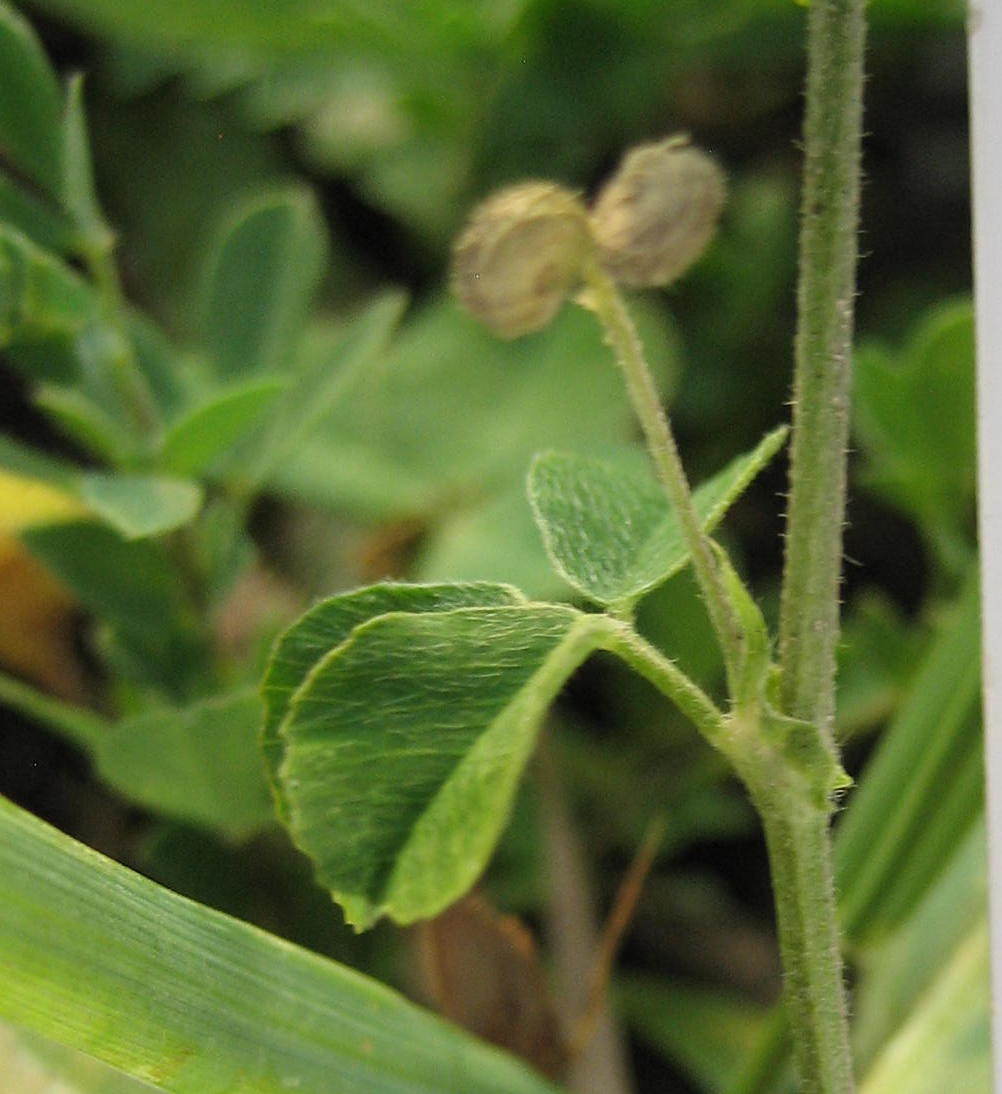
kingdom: Plantae
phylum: Tracheophyta
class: Magnoliopsida
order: Fabales
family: Fabaceae
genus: Medicago
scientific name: Medicago lupulina
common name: Black medick
